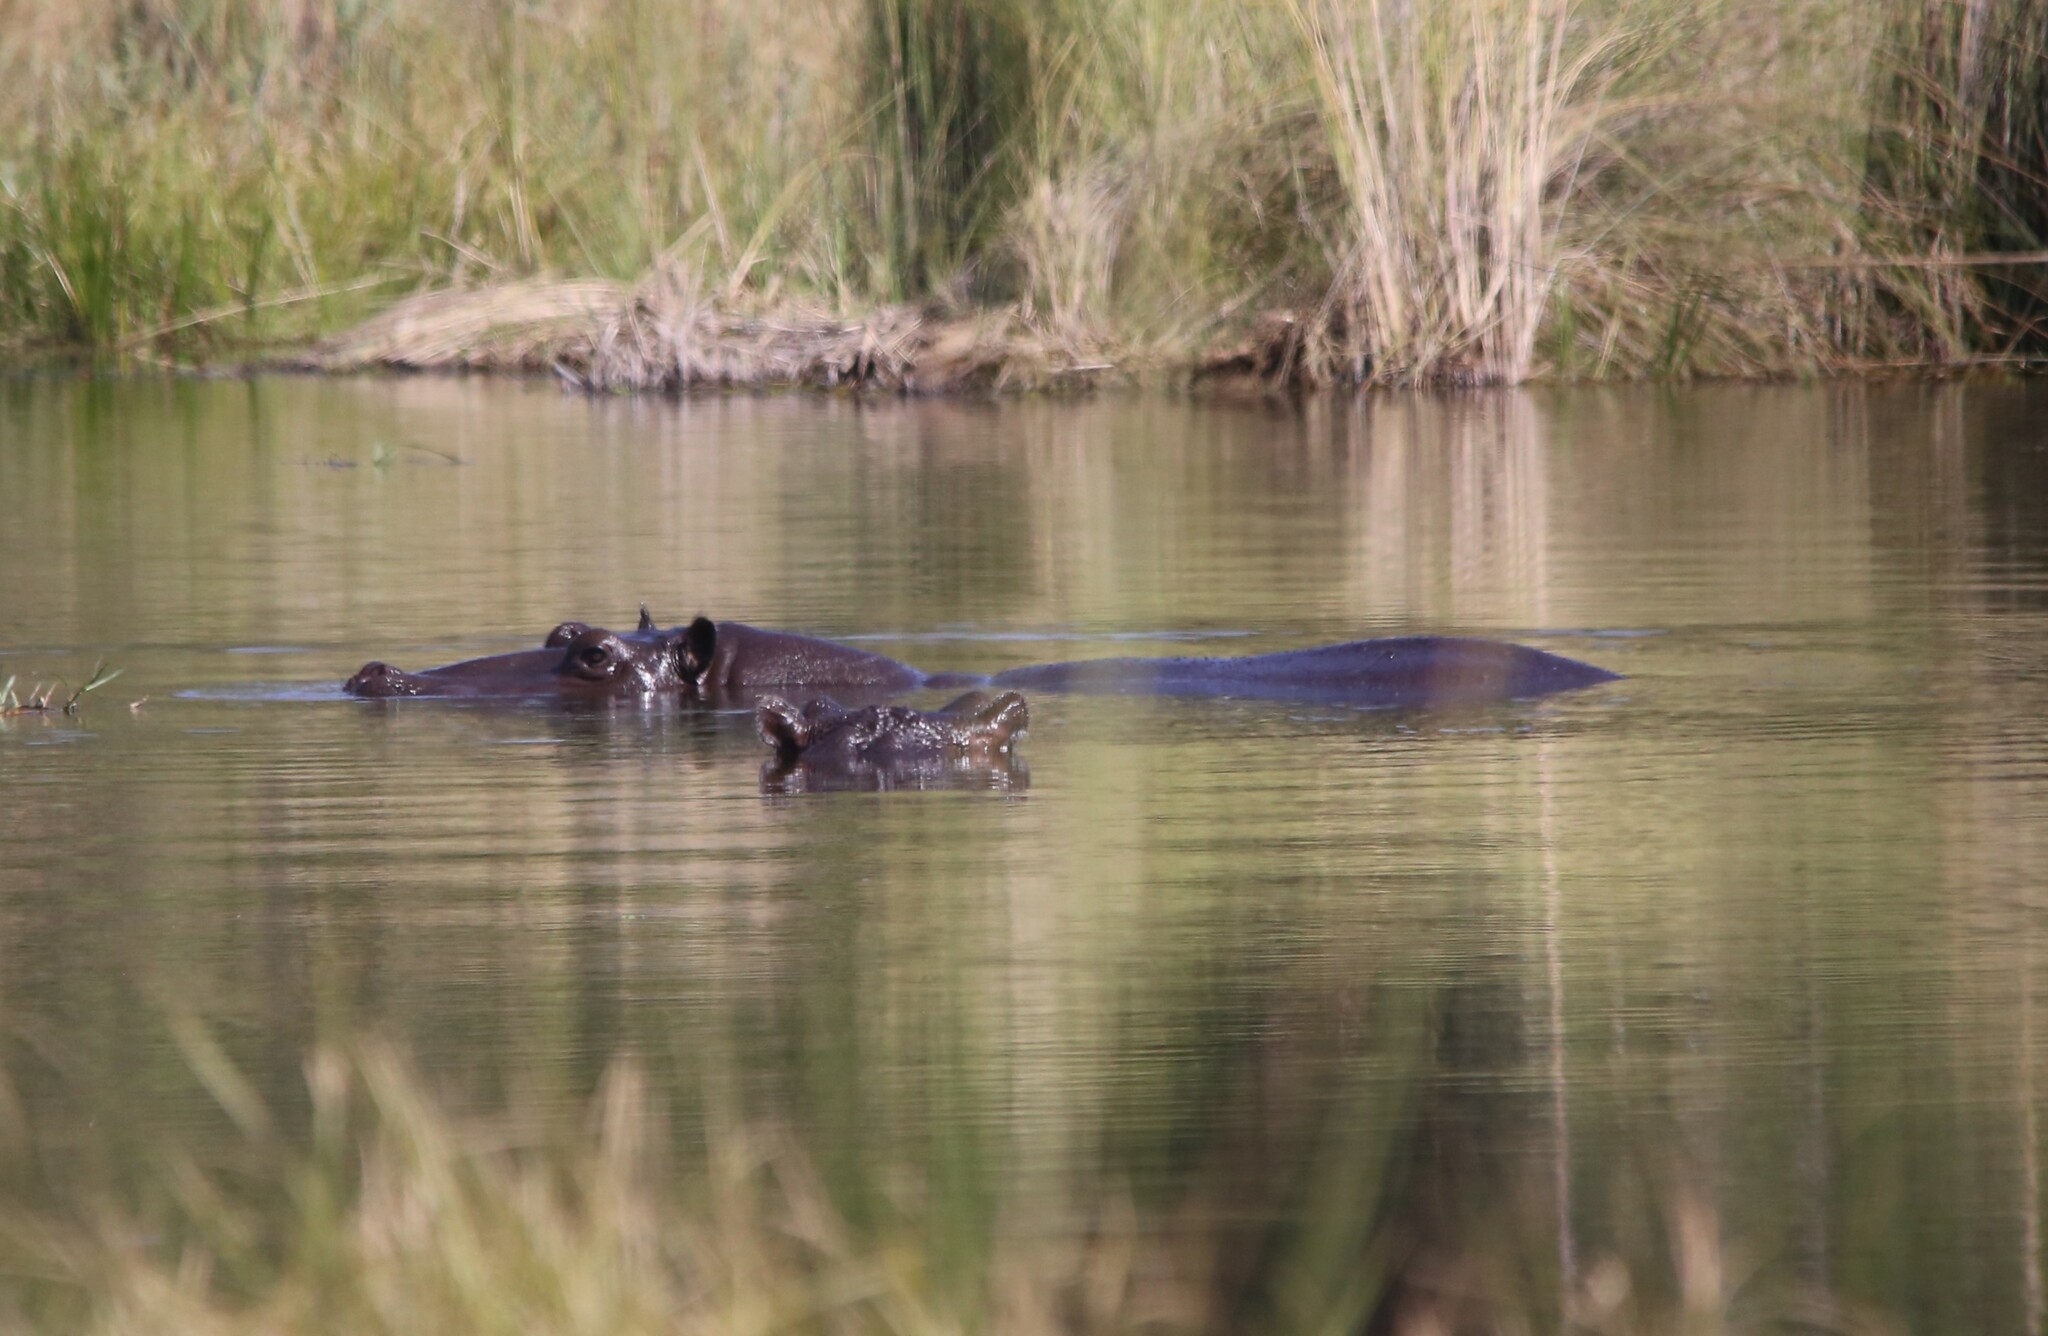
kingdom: Animalia
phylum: Chordata
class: Mammalia
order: Artiodactyla
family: Hippopotamidae
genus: Hippopotamus
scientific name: Hippopotamus amphibius
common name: Common hippopotamus
